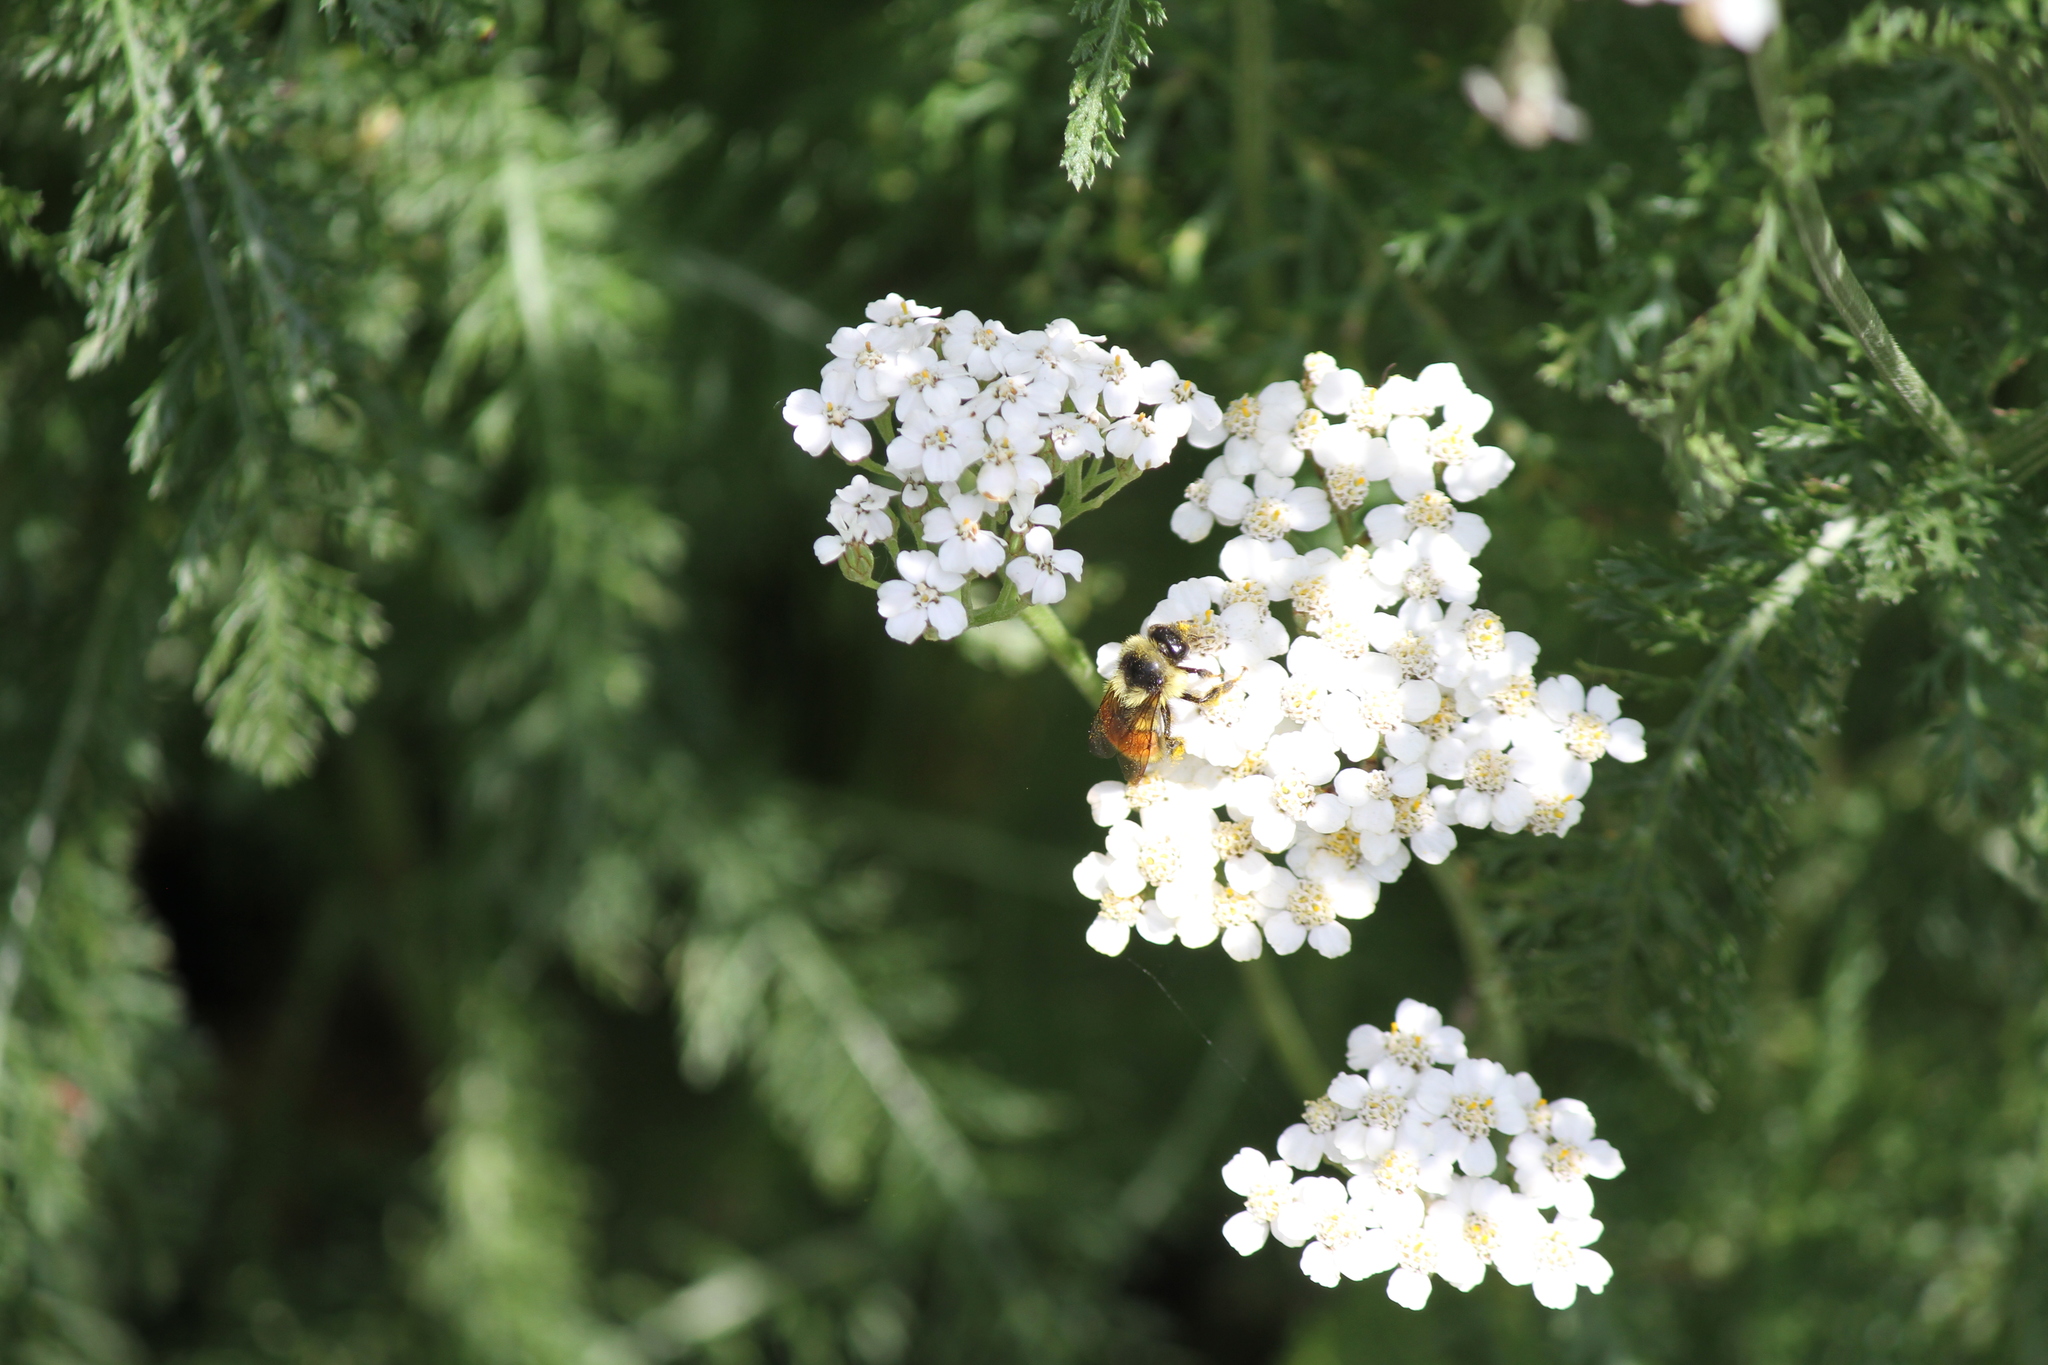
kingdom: Animalia
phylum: Arthropoda
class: Insecta
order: Hymenoptera
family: Apidae
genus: Bombus
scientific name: Bombus ternarius
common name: Tri-colored bumble bee
